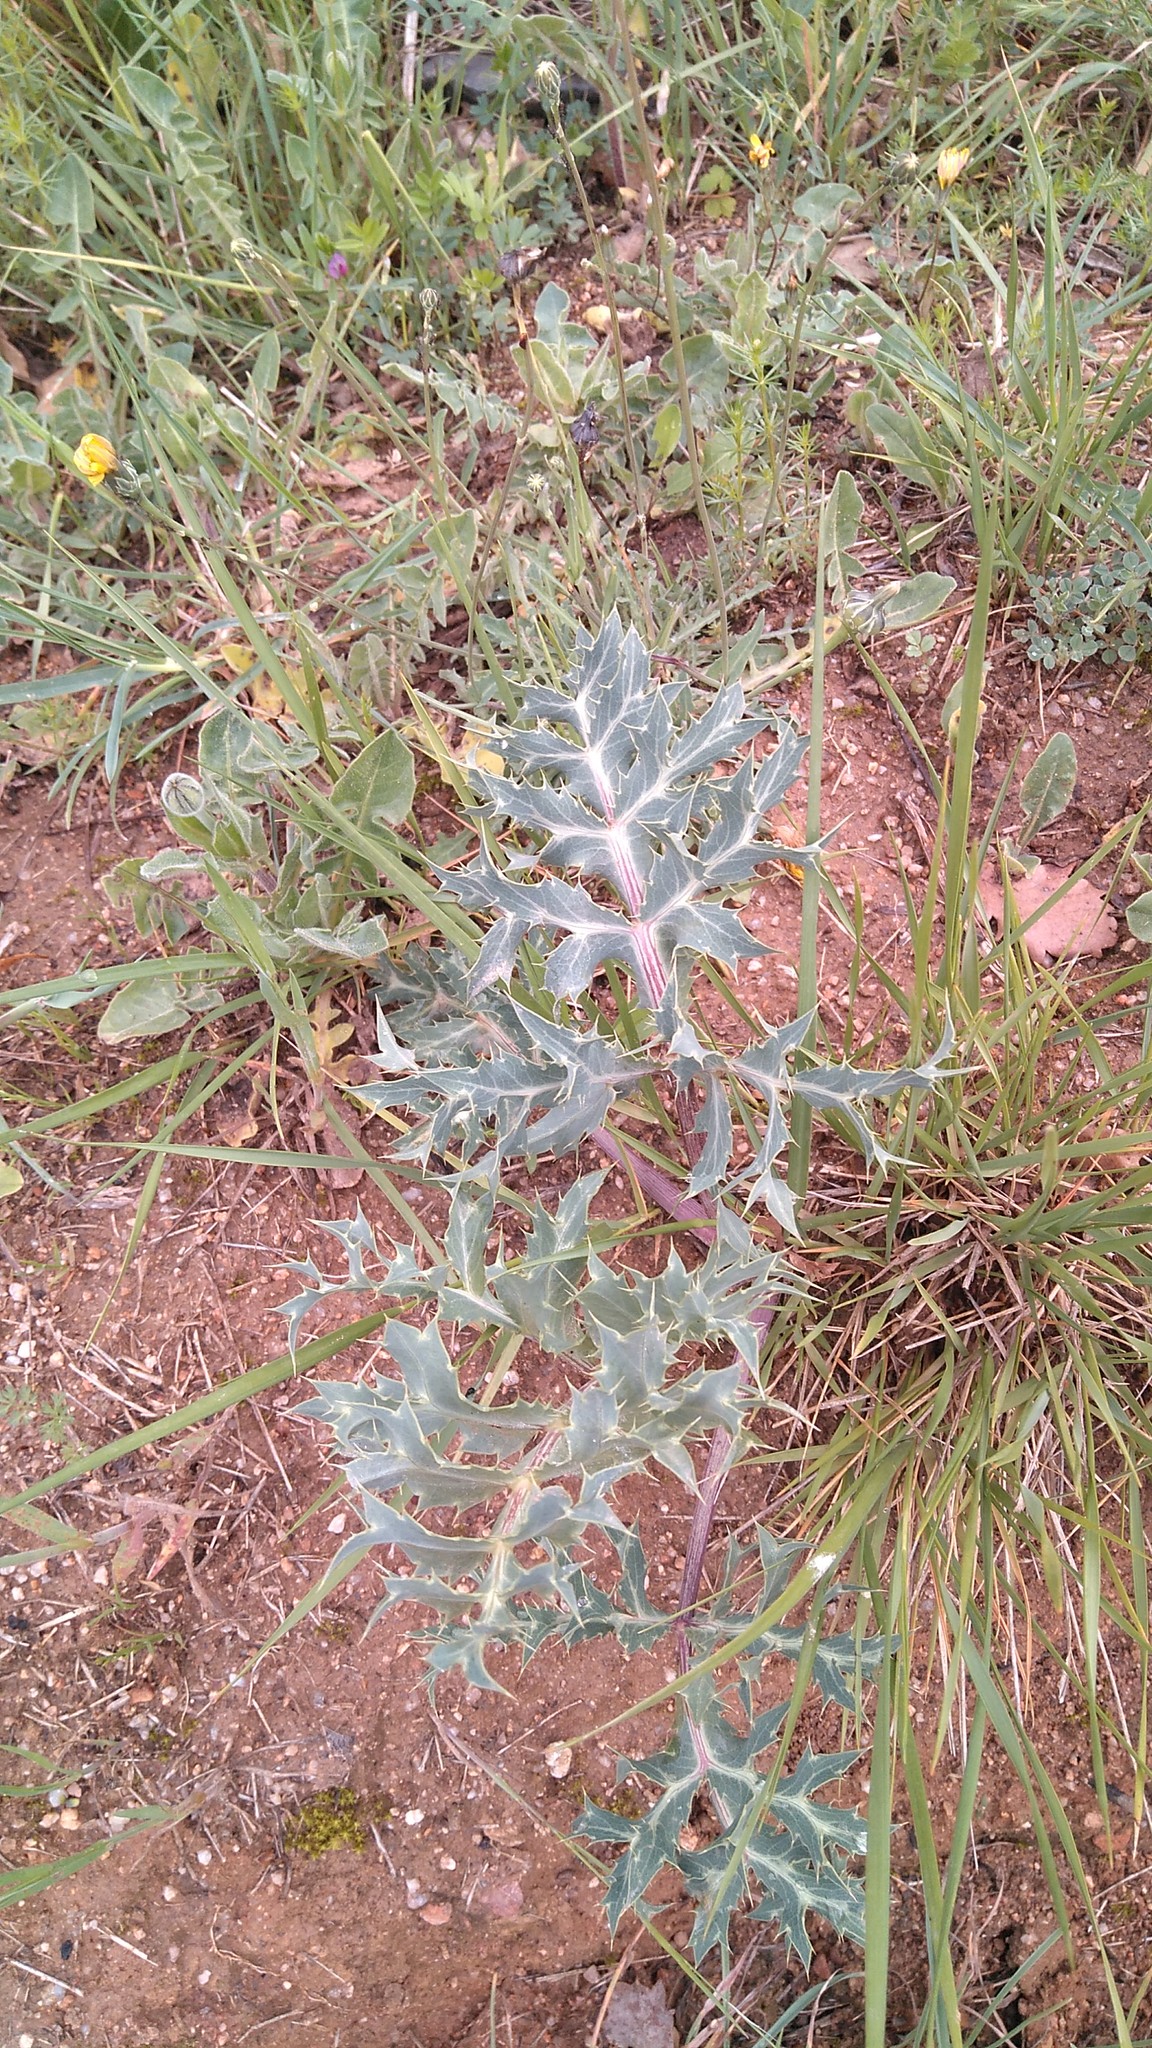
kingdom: Plantae
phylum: Tracheophyta
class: Magnoliopsida
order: Apiales
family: Apiaceae
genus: Eryngium
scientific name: Eryngium campestre
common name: Field eryngo
